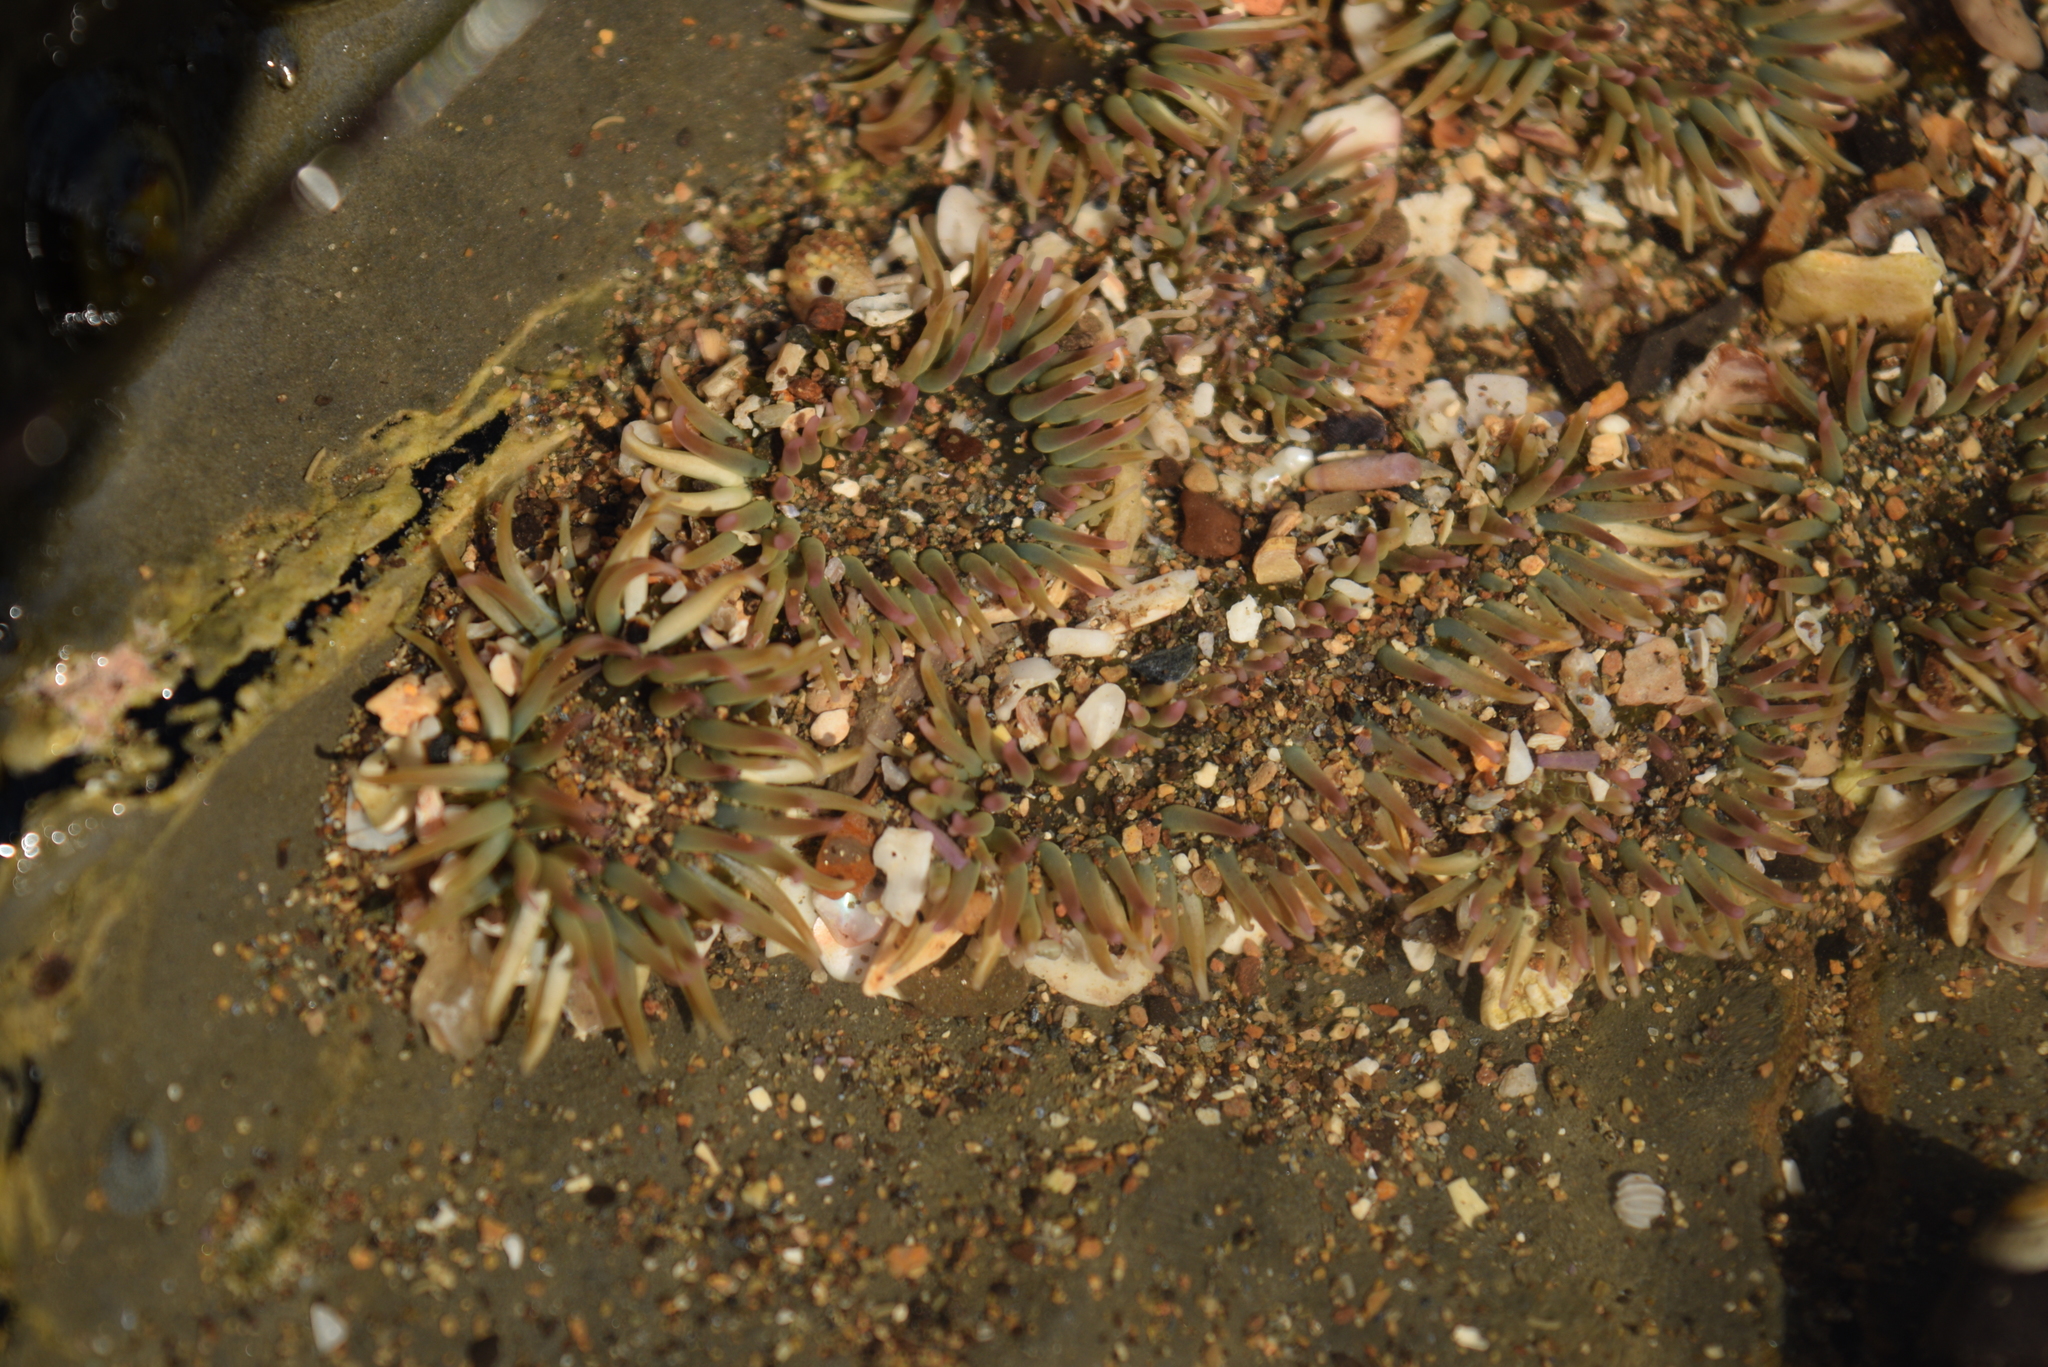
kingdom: Animalia
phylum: Cnidaria
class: Anthozoa
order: Actiniaria
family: Actiniidae
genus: Anthopleura
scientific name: Anthopleura elegantissima
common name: Clonal anemone
